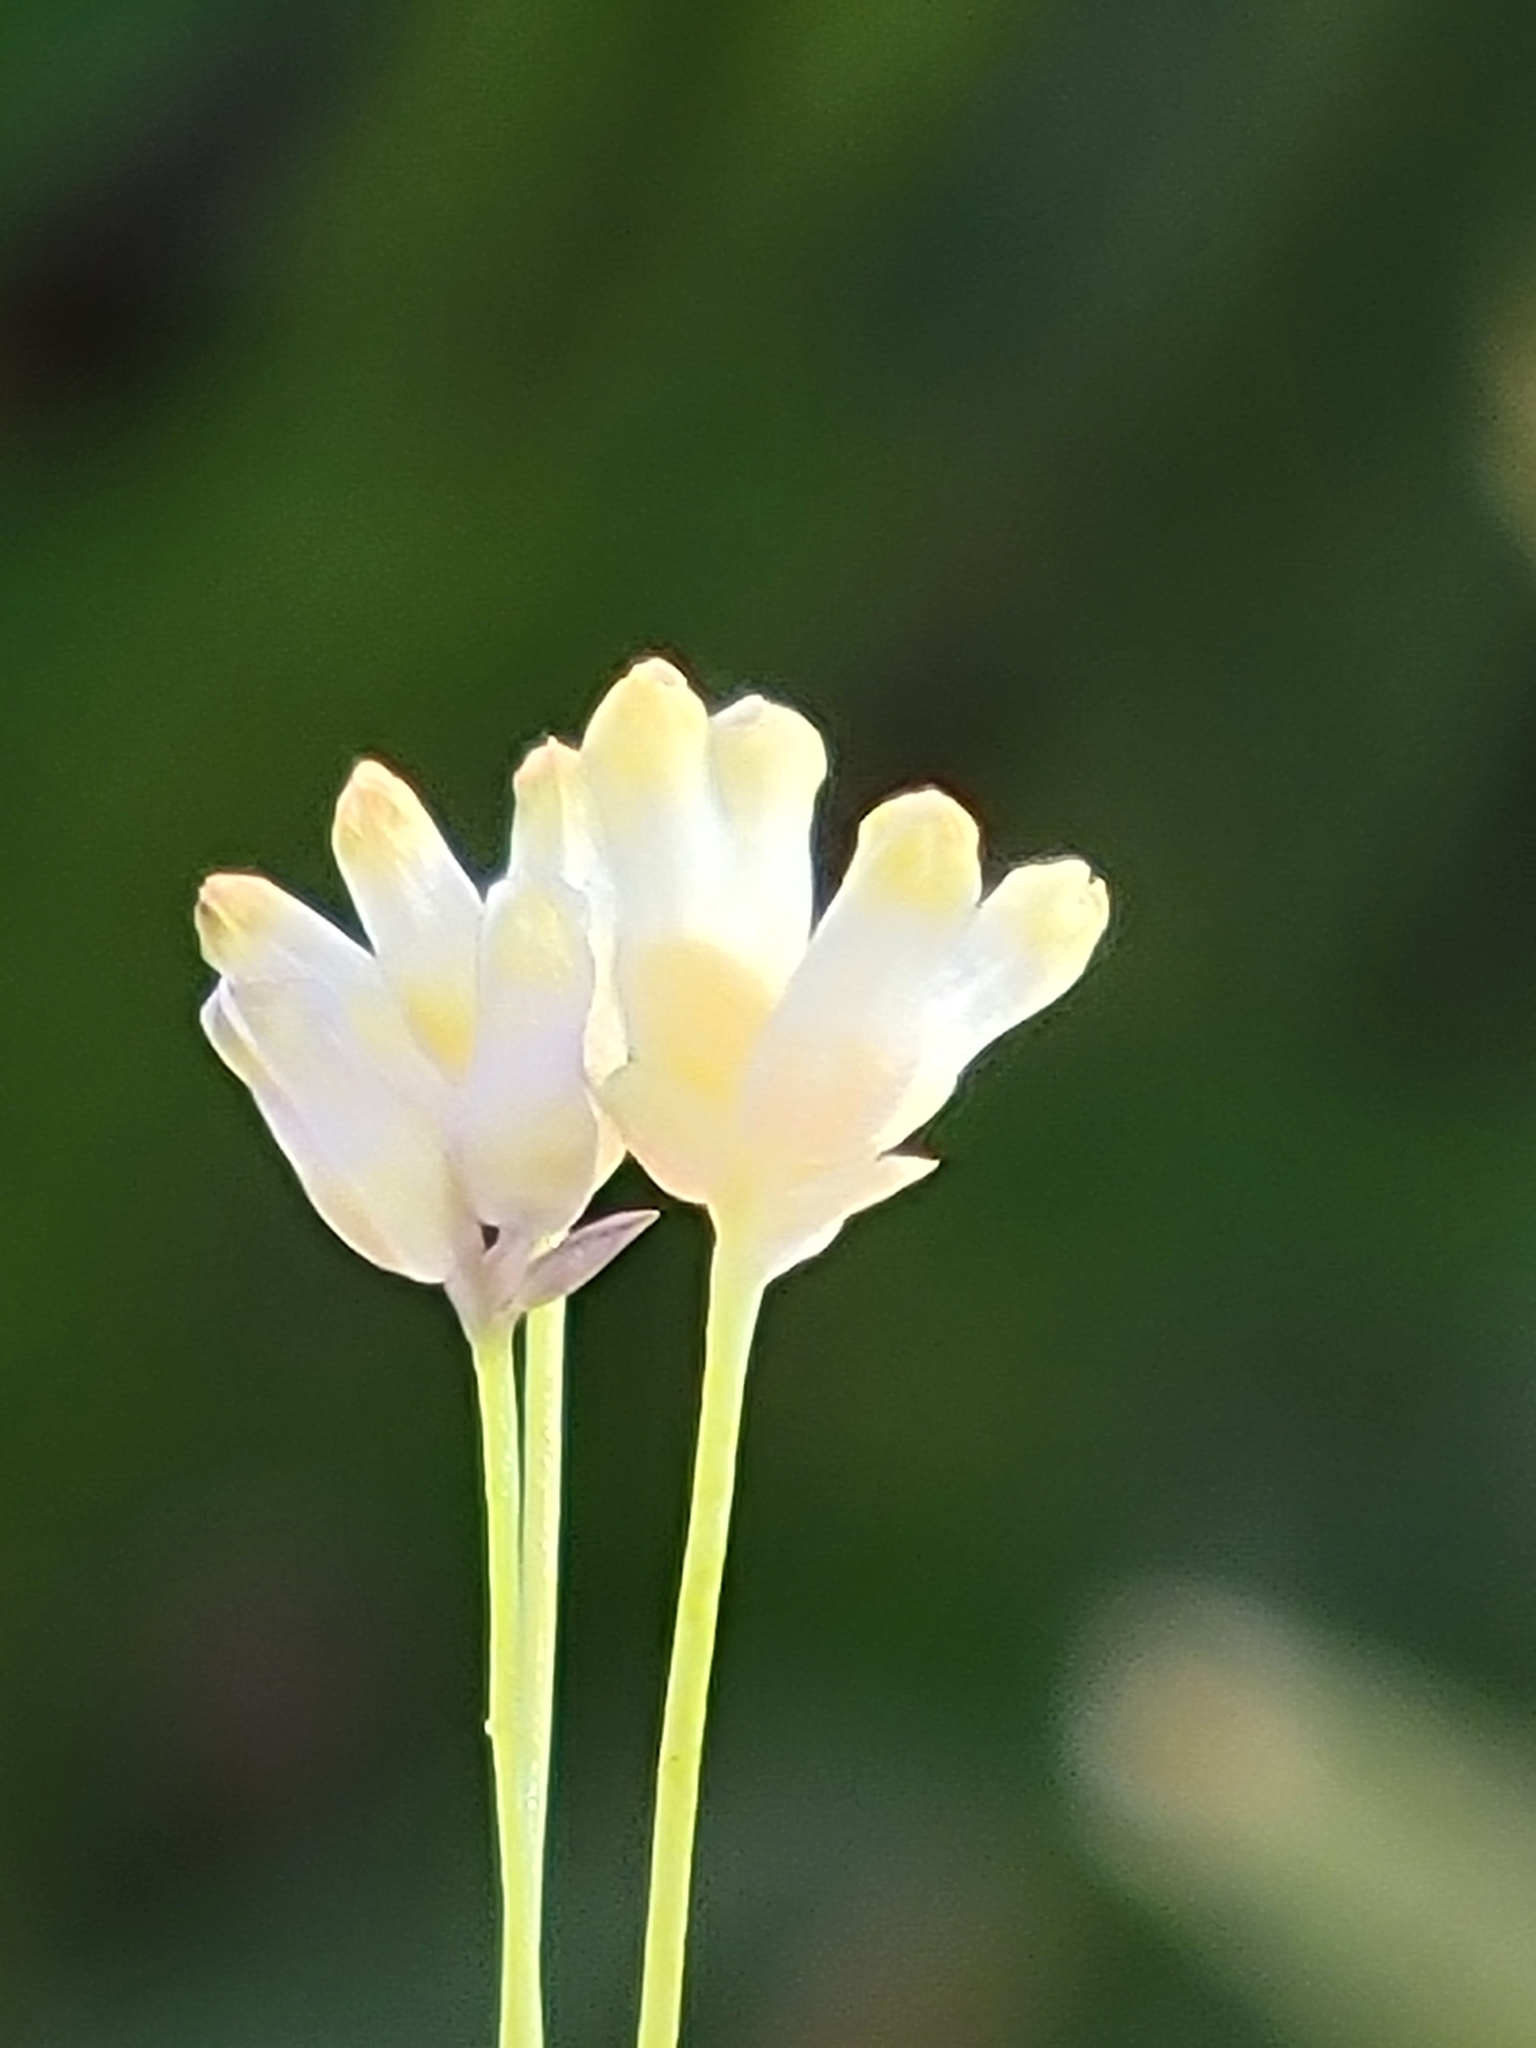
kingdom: Plantae
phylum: Tracheophyta
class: Liliopsida
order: Dioscoreales
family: Burmanniaceae
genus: Burmannia
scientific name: Burmannia capitata
